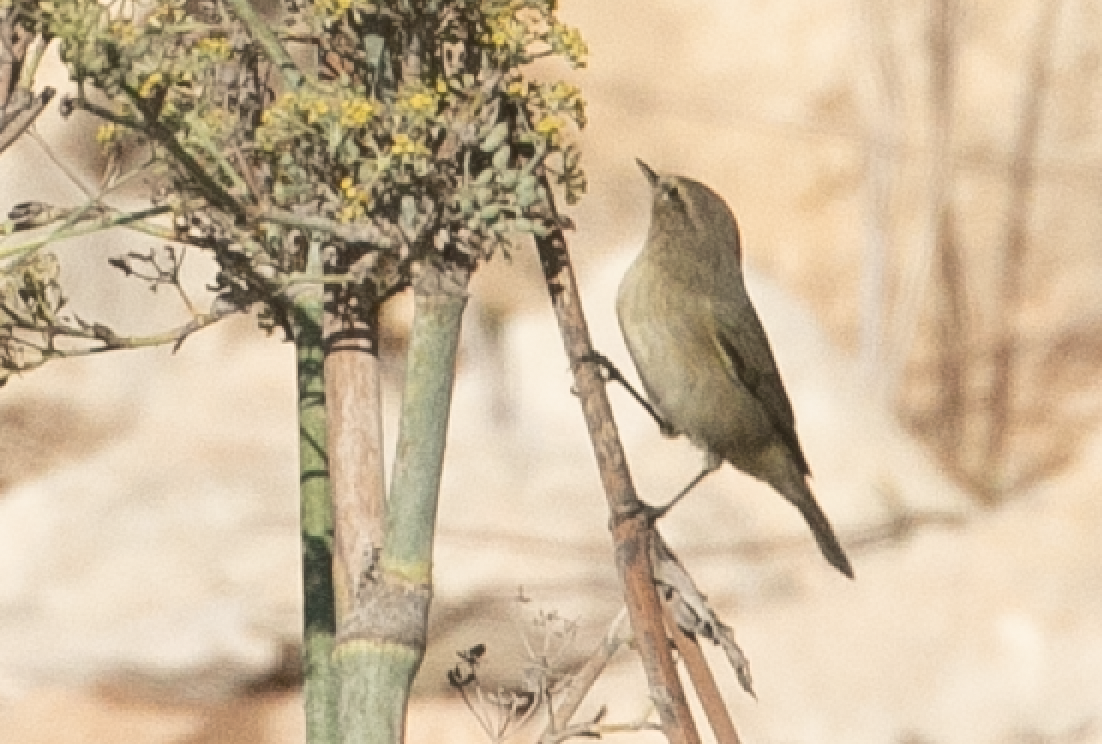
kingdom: Animalia
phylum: Chordata
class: Aves
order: Passeriformes
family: Phylloscopidae
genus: Phylloscopus
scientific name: Phylloscopus collybita
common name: Common chiffchaff
